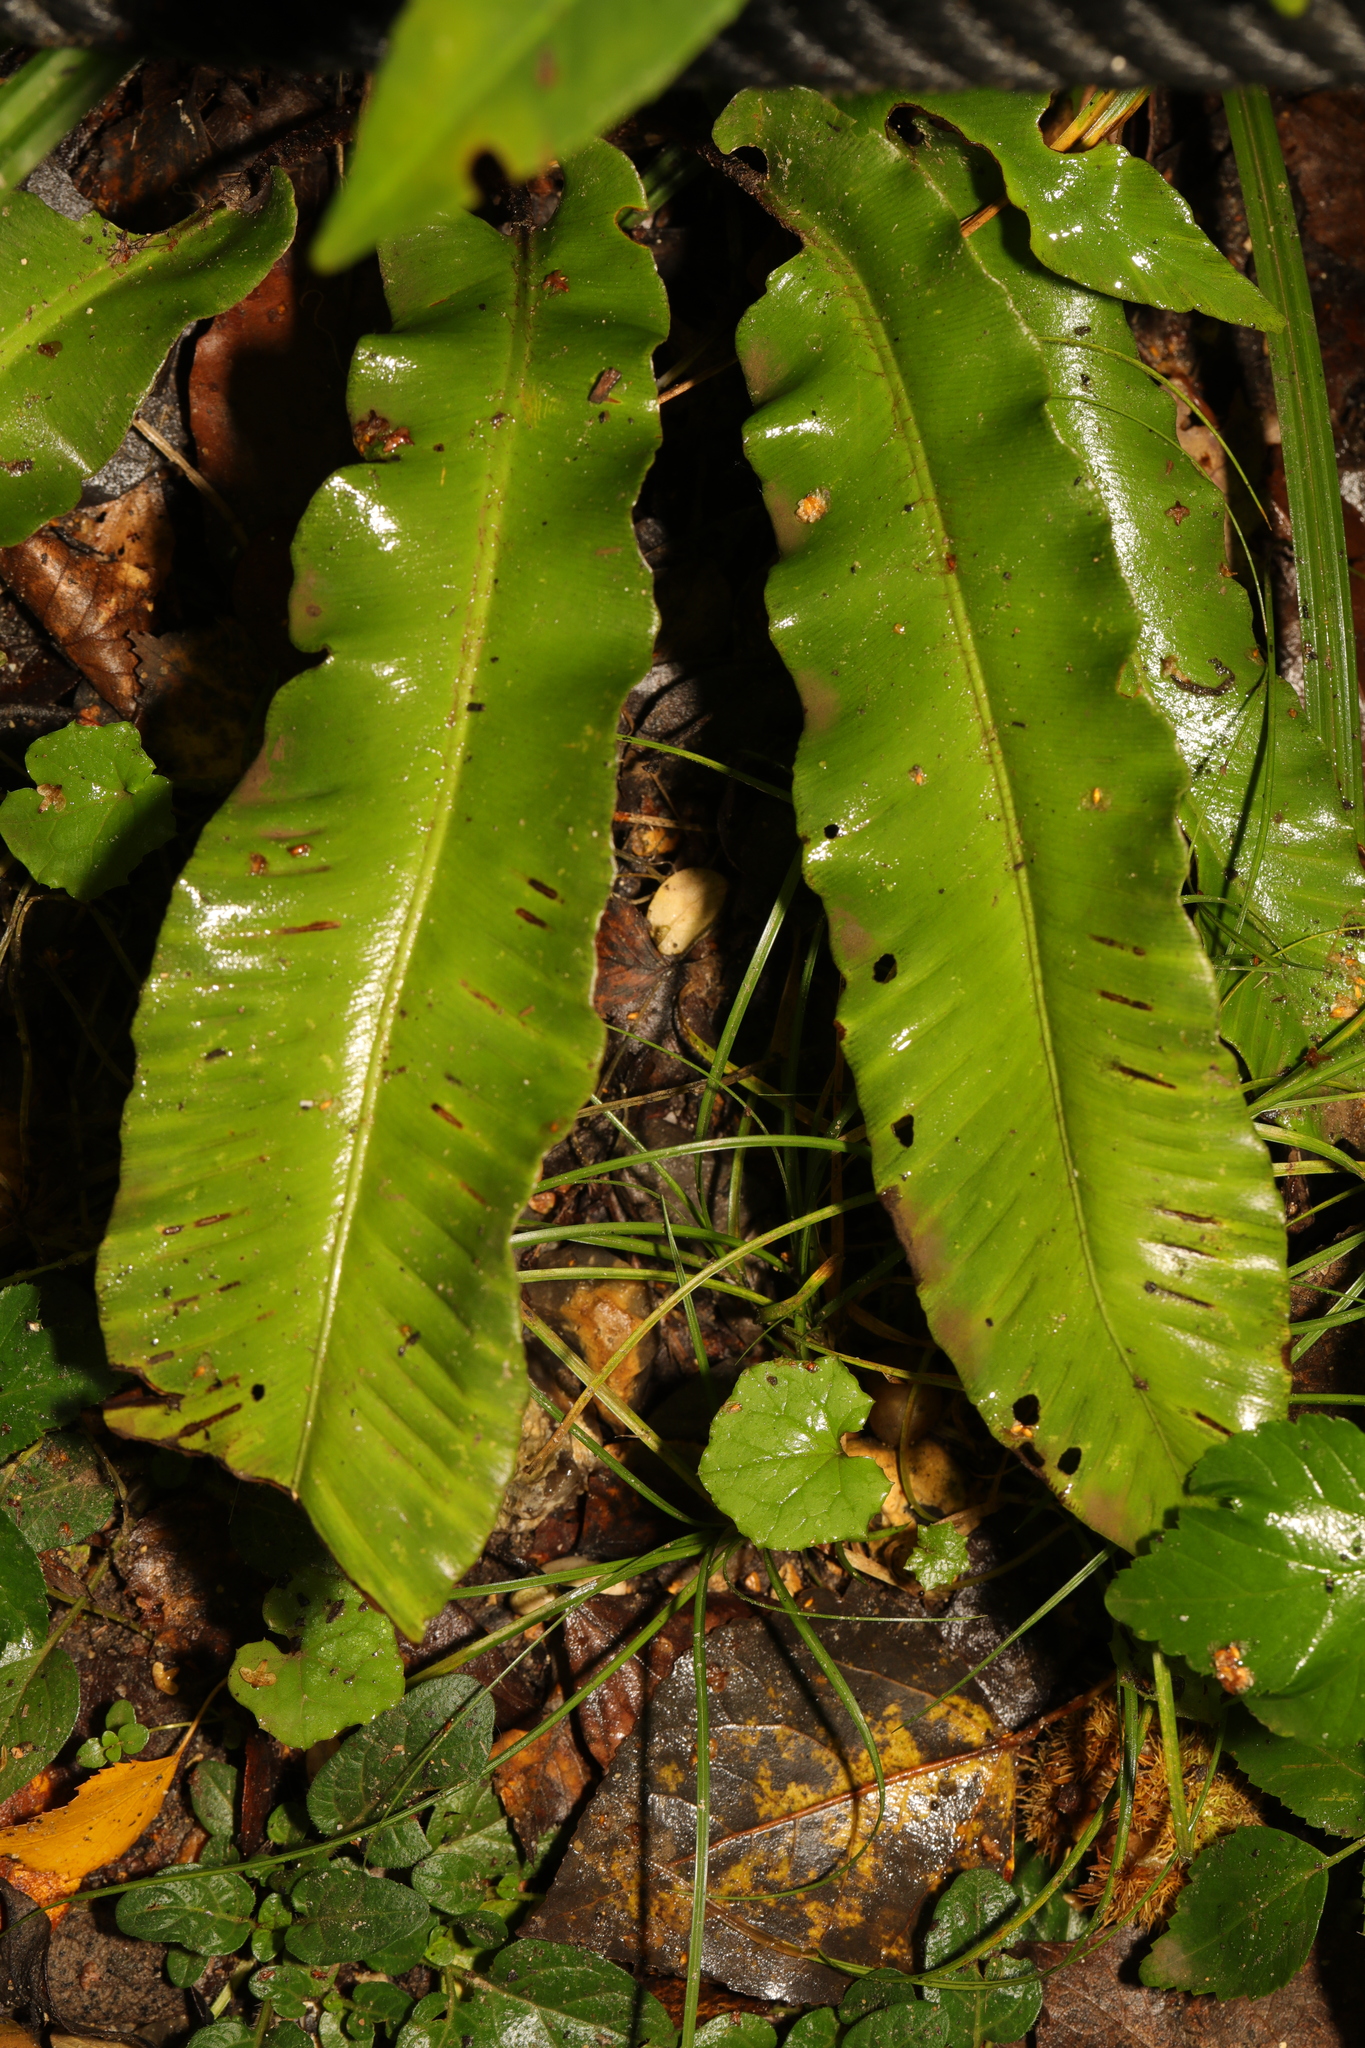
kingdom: Plantae
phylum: Tracheophyta
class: Polypodiopsida
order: Polypodiales
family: Aspleniaceae
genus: Asplenium
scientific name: Asplenium scolopendrium
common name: Hart's-tongue fern
